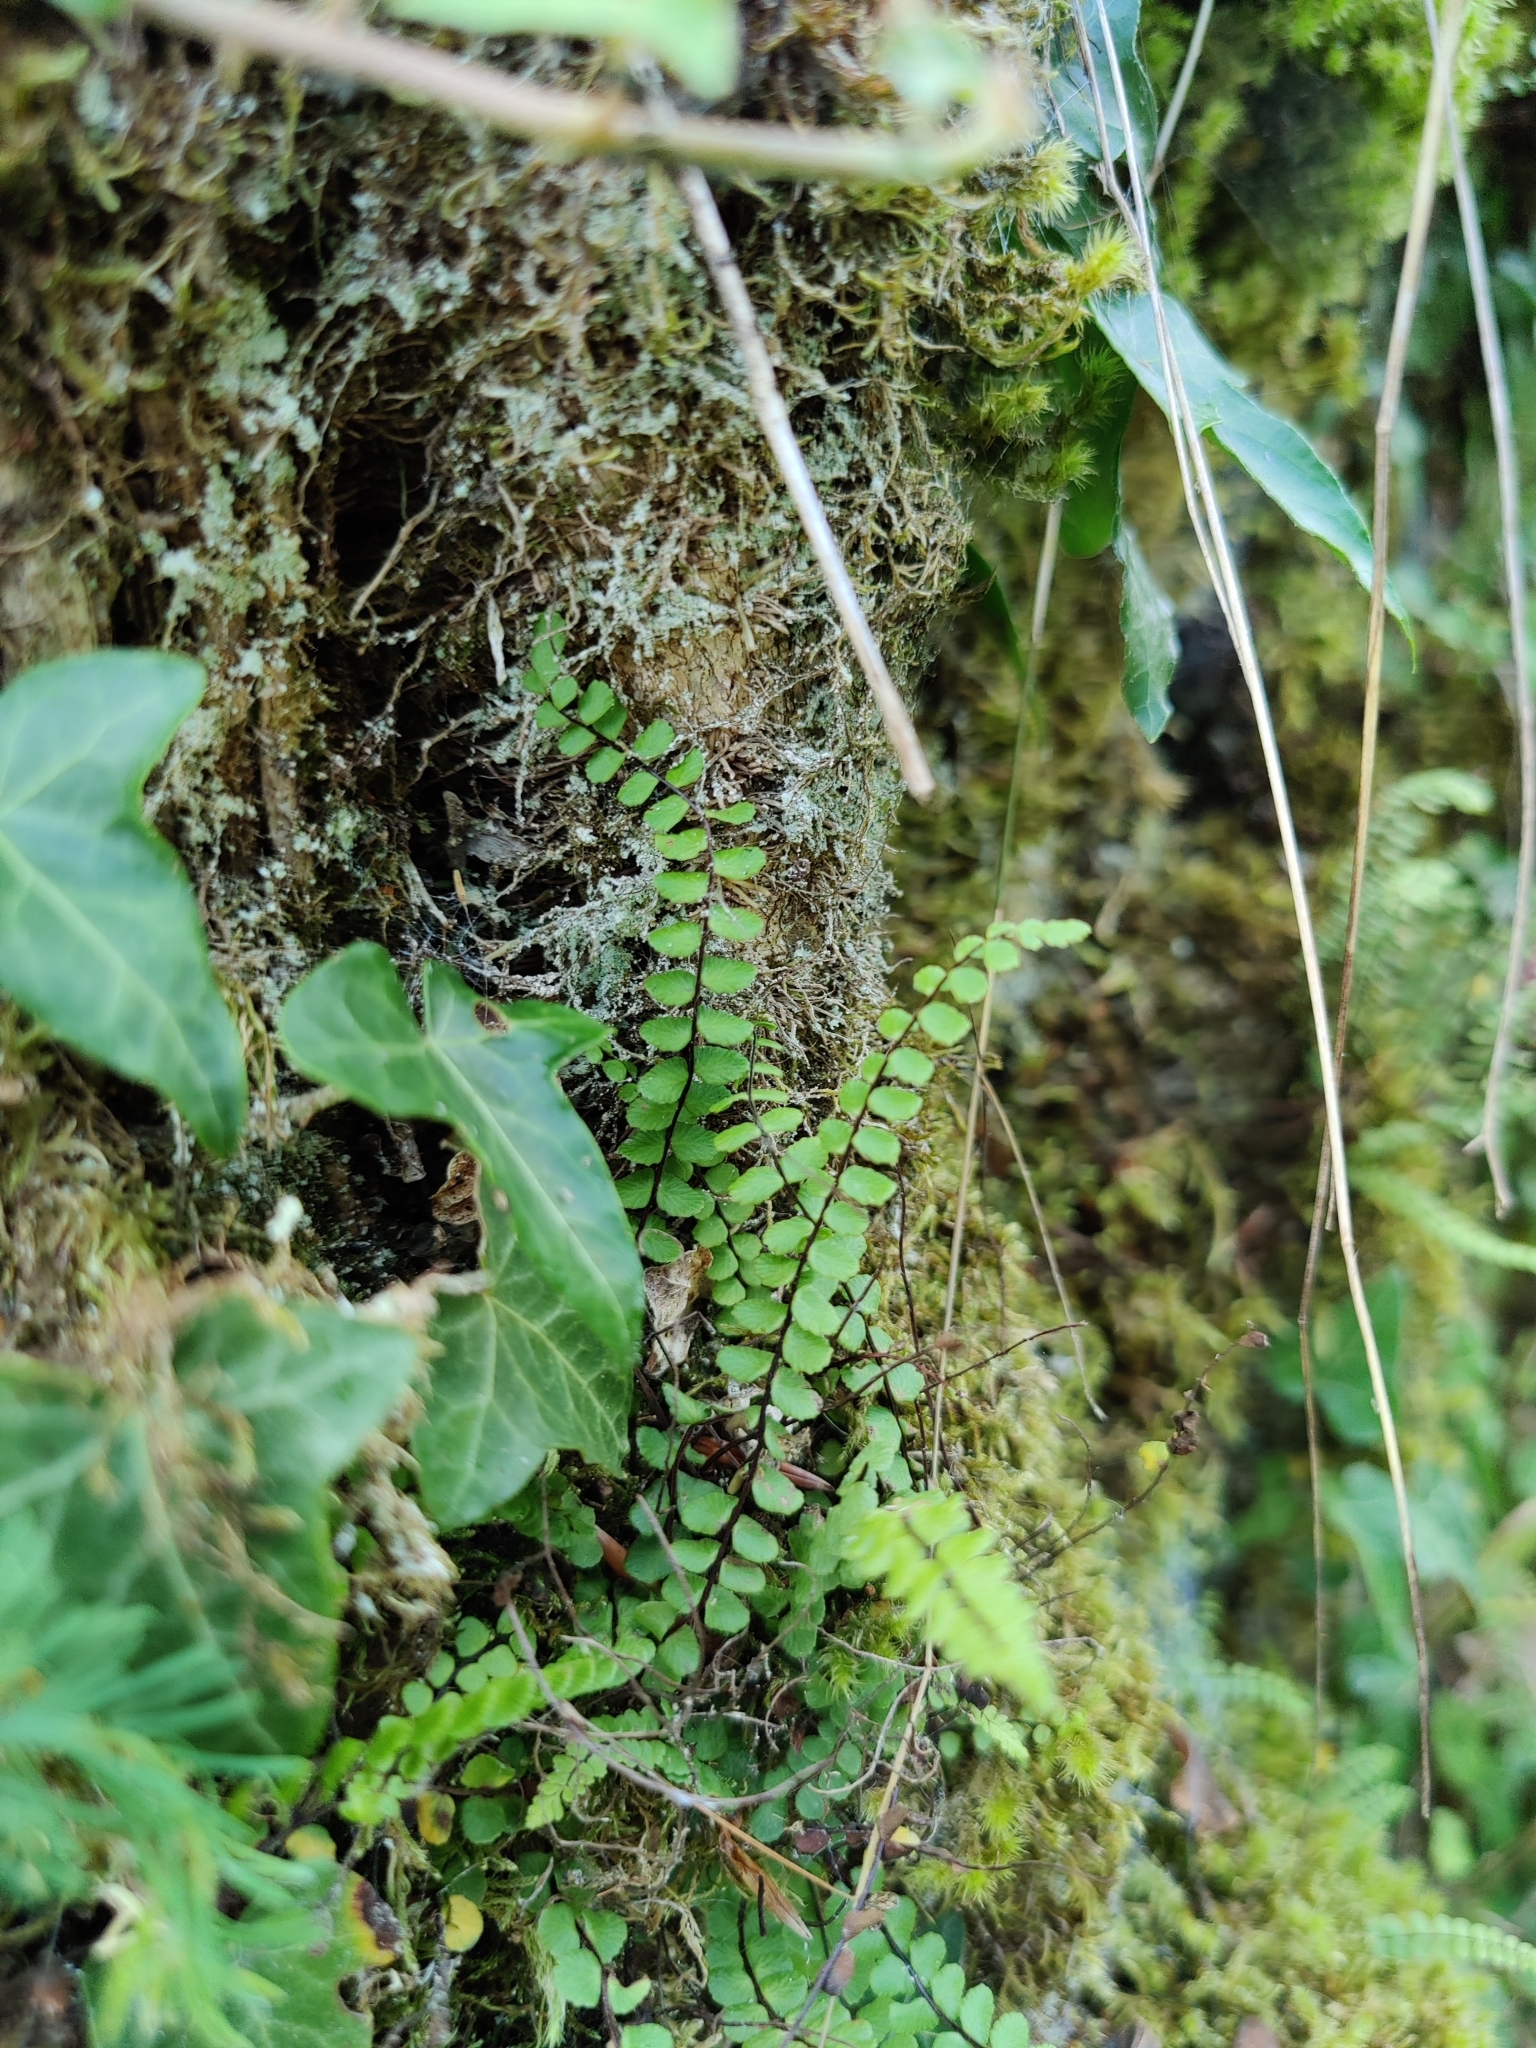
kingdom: Plantae
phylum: Tracheophyta
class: Polypodiopsida
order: Polypodiales
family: Aspleniaceae
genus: Asplenium
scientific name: Asplenium trichomanes
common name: Maidenhair spleenwort
